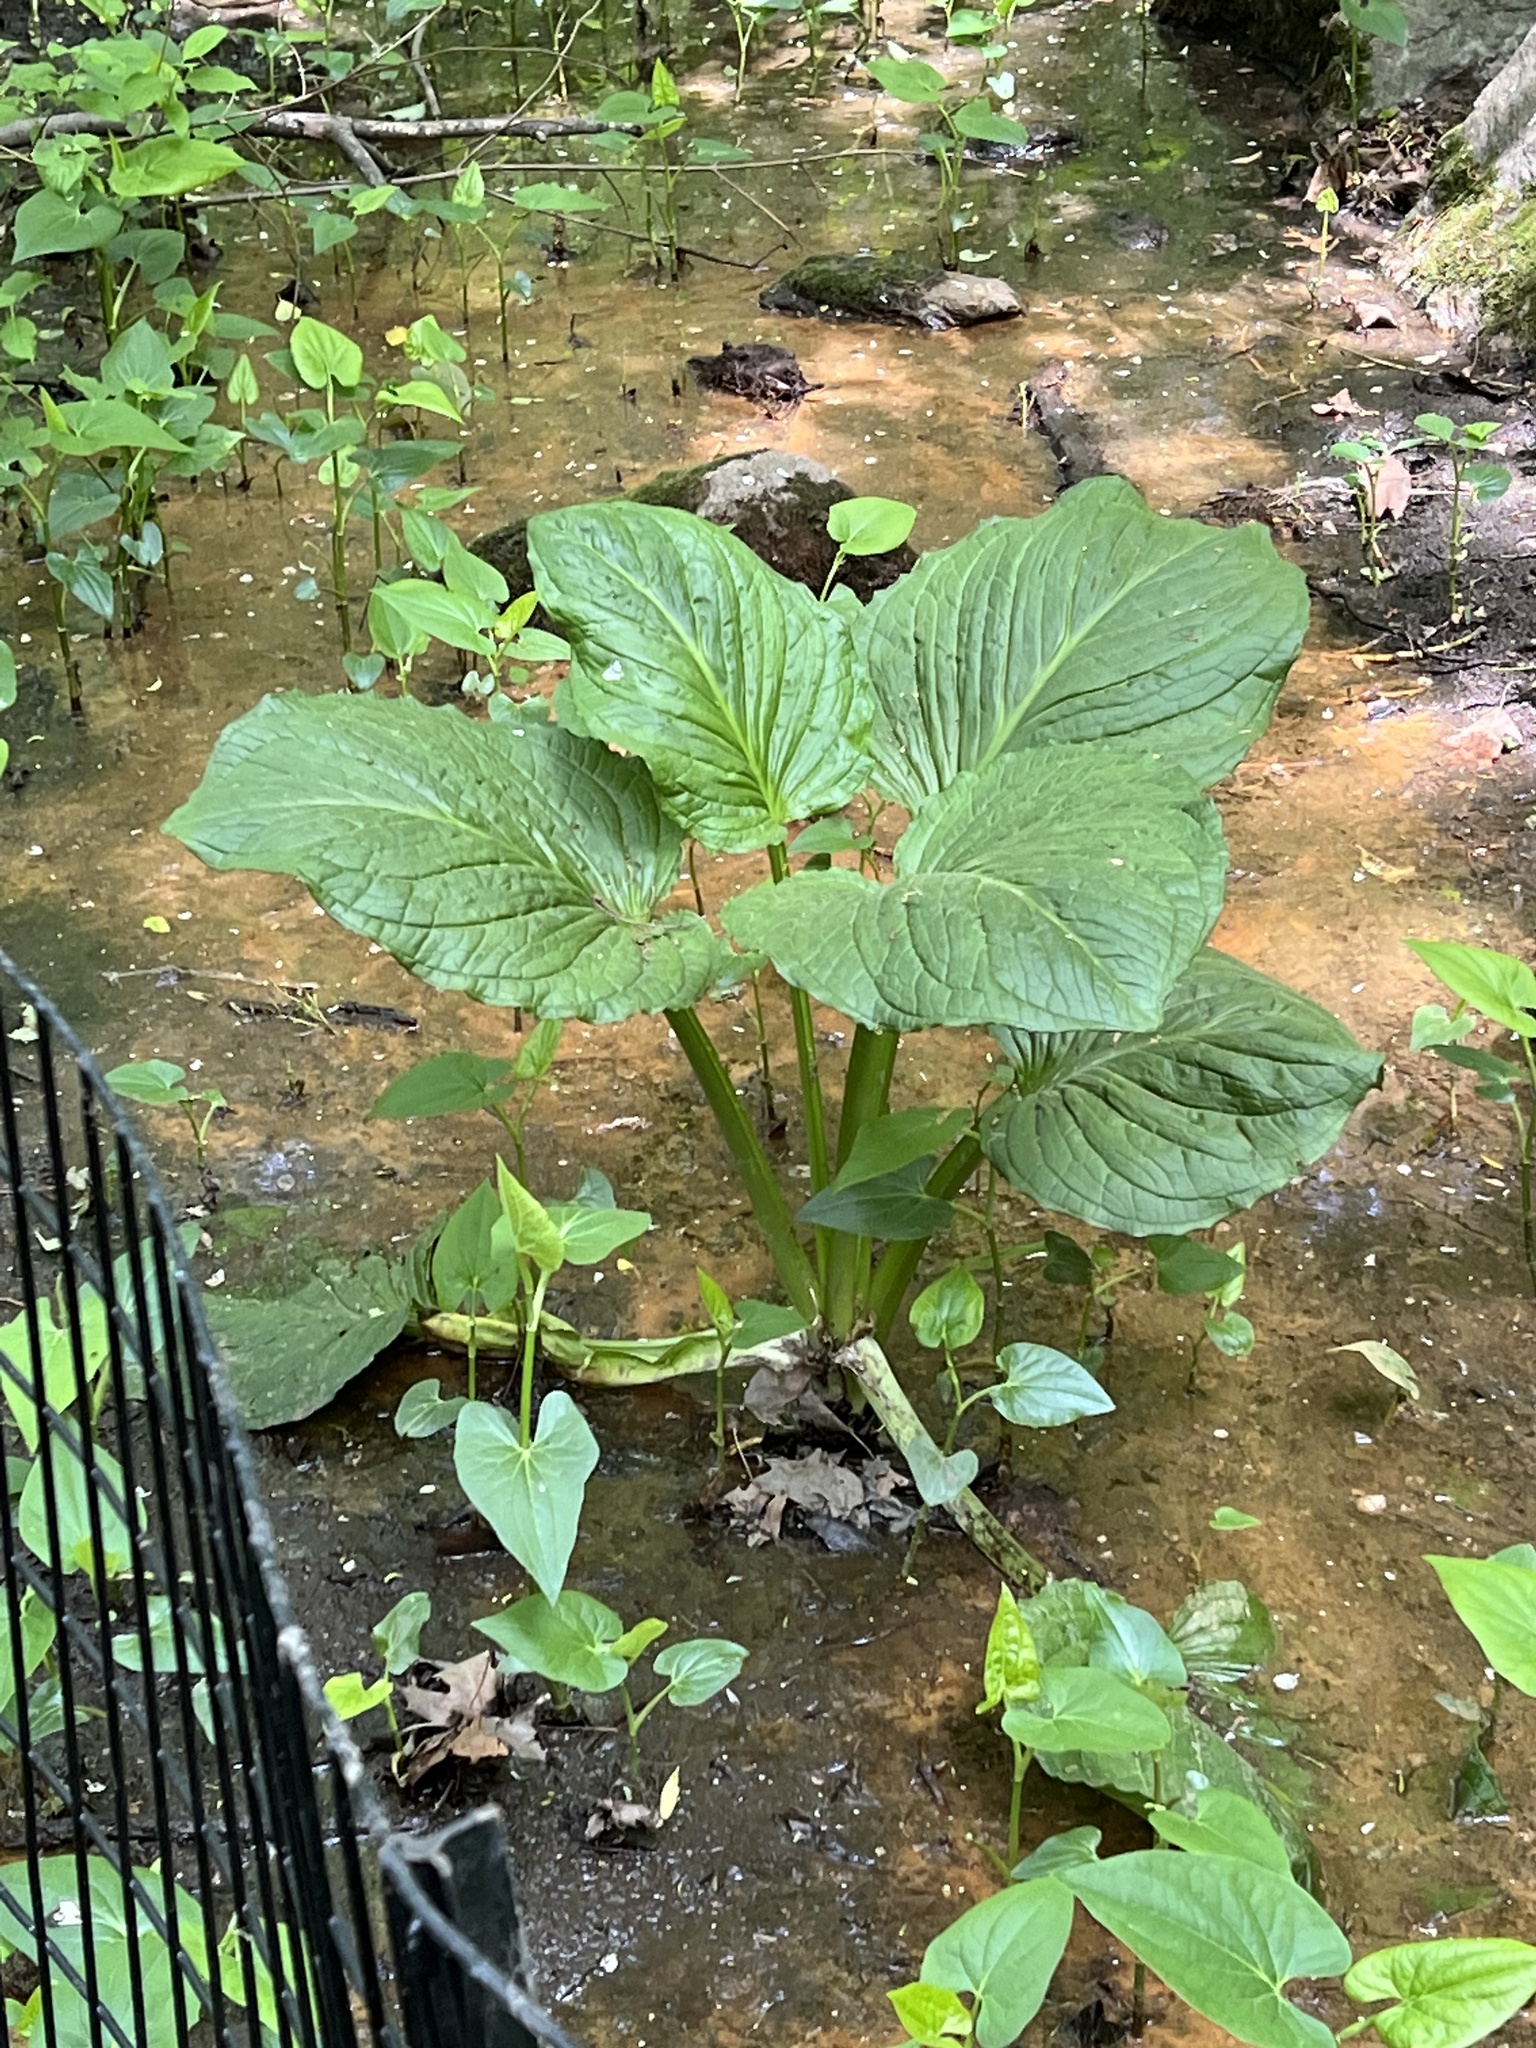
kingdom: Plantae
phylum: Tracheophyta
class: Liliopsida
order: Alismatales
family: Araceae
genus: Symplocarpus
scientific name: Symplocarpus foetidus
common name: Eastern skunk cabbage
